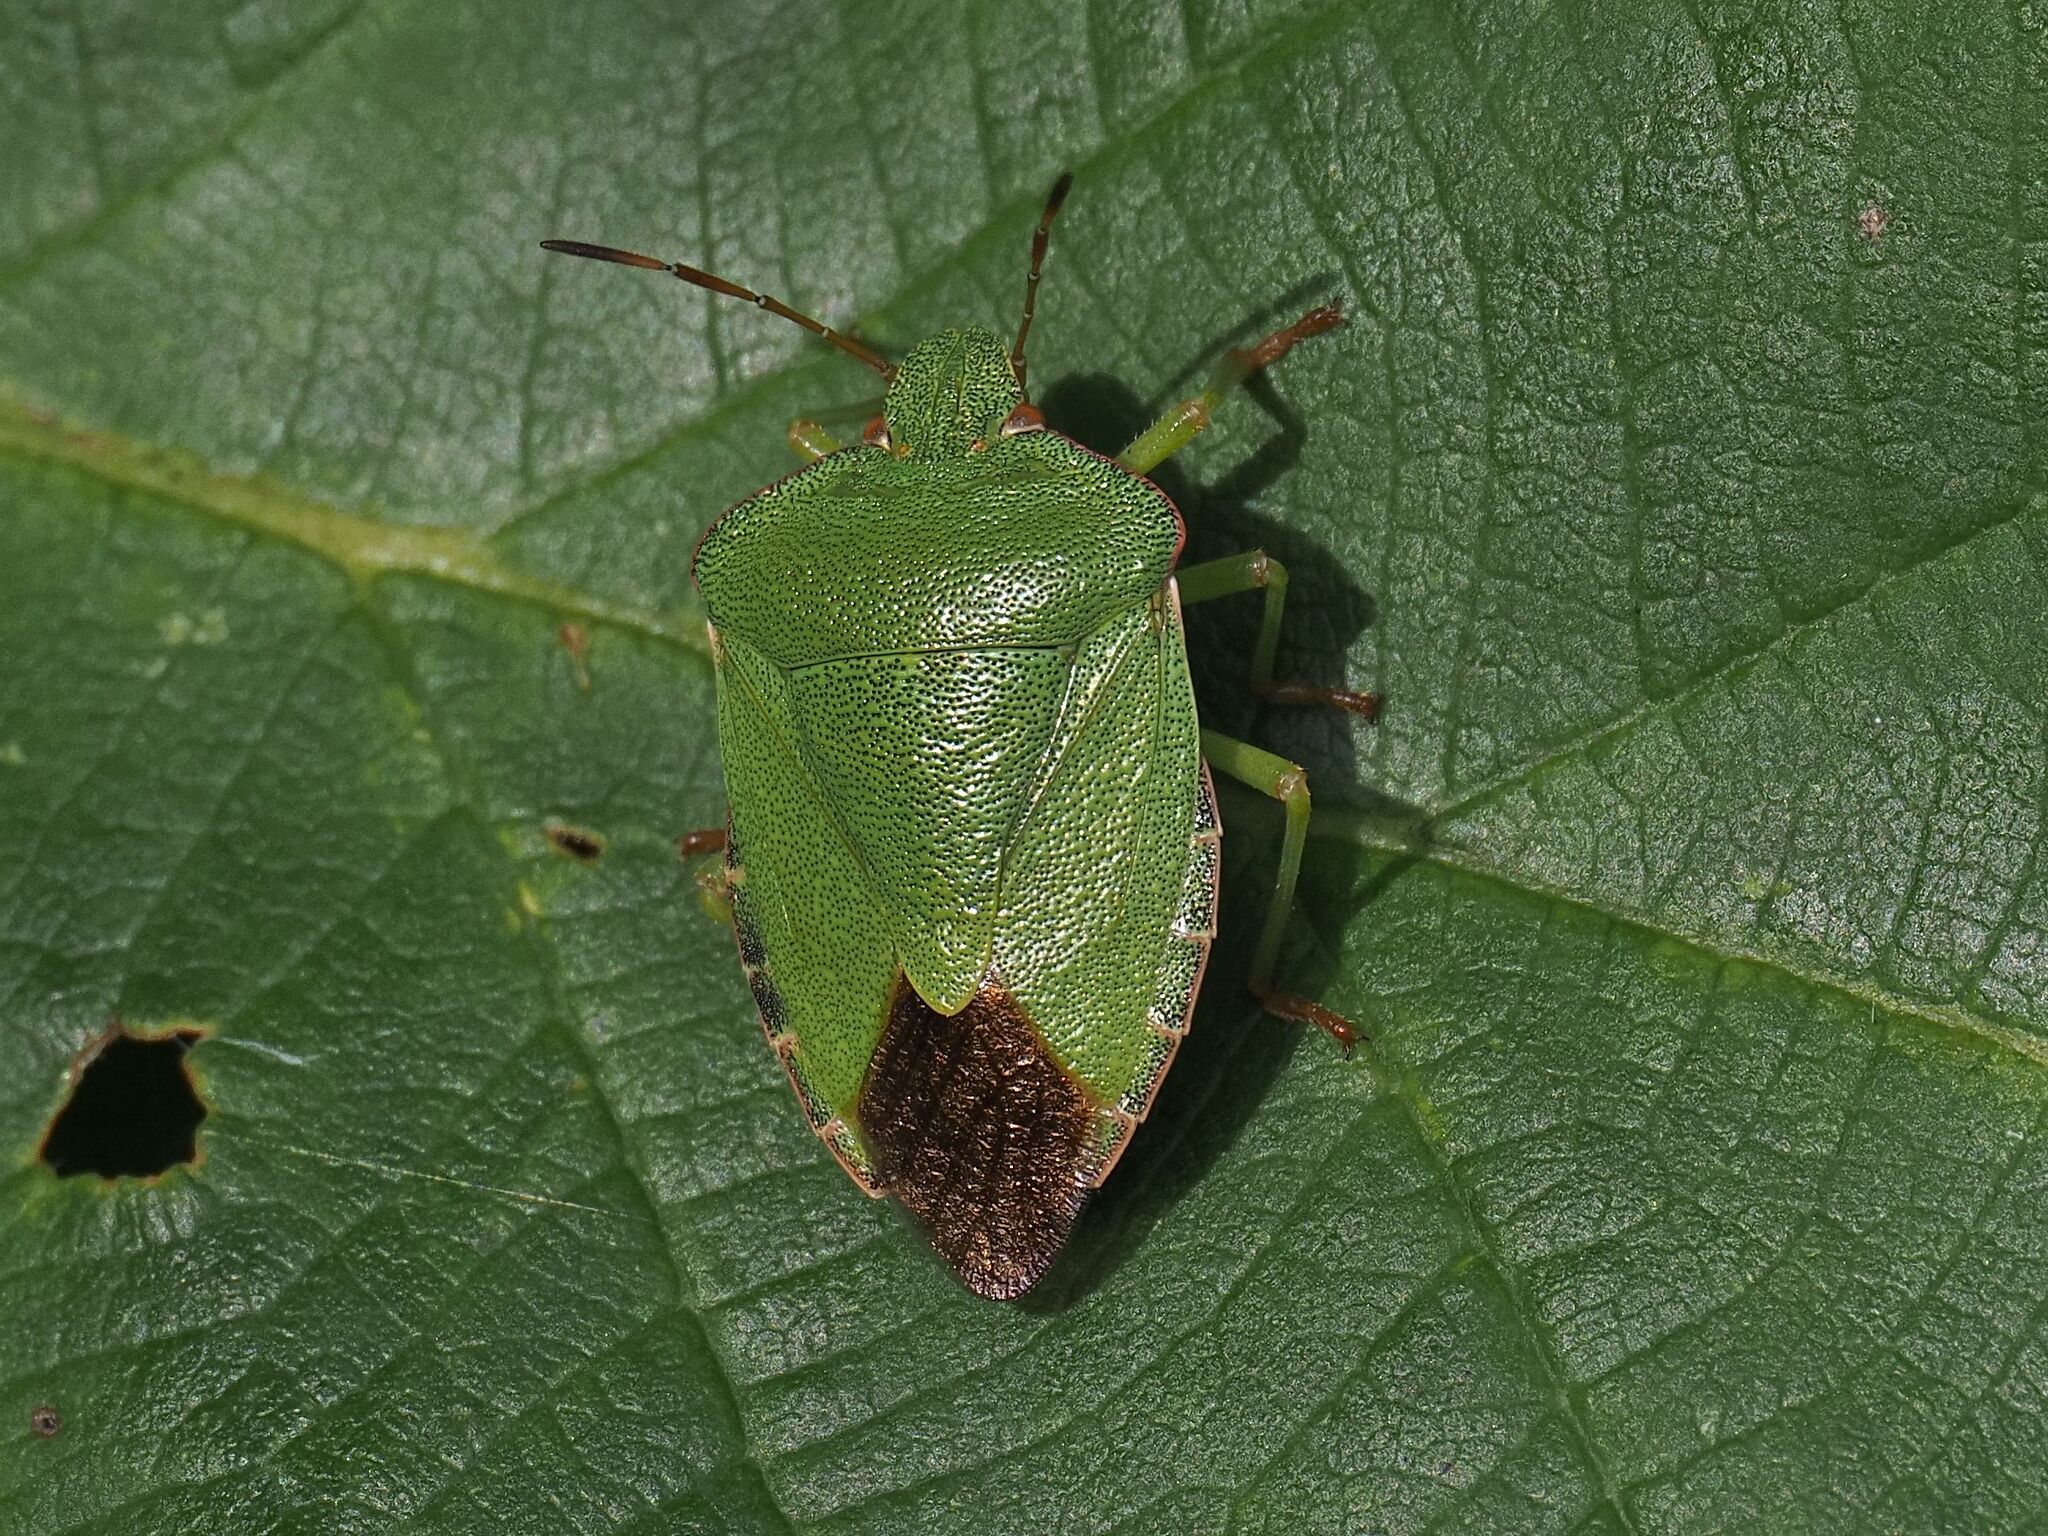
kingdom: Animalia
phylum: Arthropoda
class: Insecta
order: Hemiptera
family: Pentatomidae
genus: Palomena
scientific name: Palomena prasina
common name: Green shieldbug
